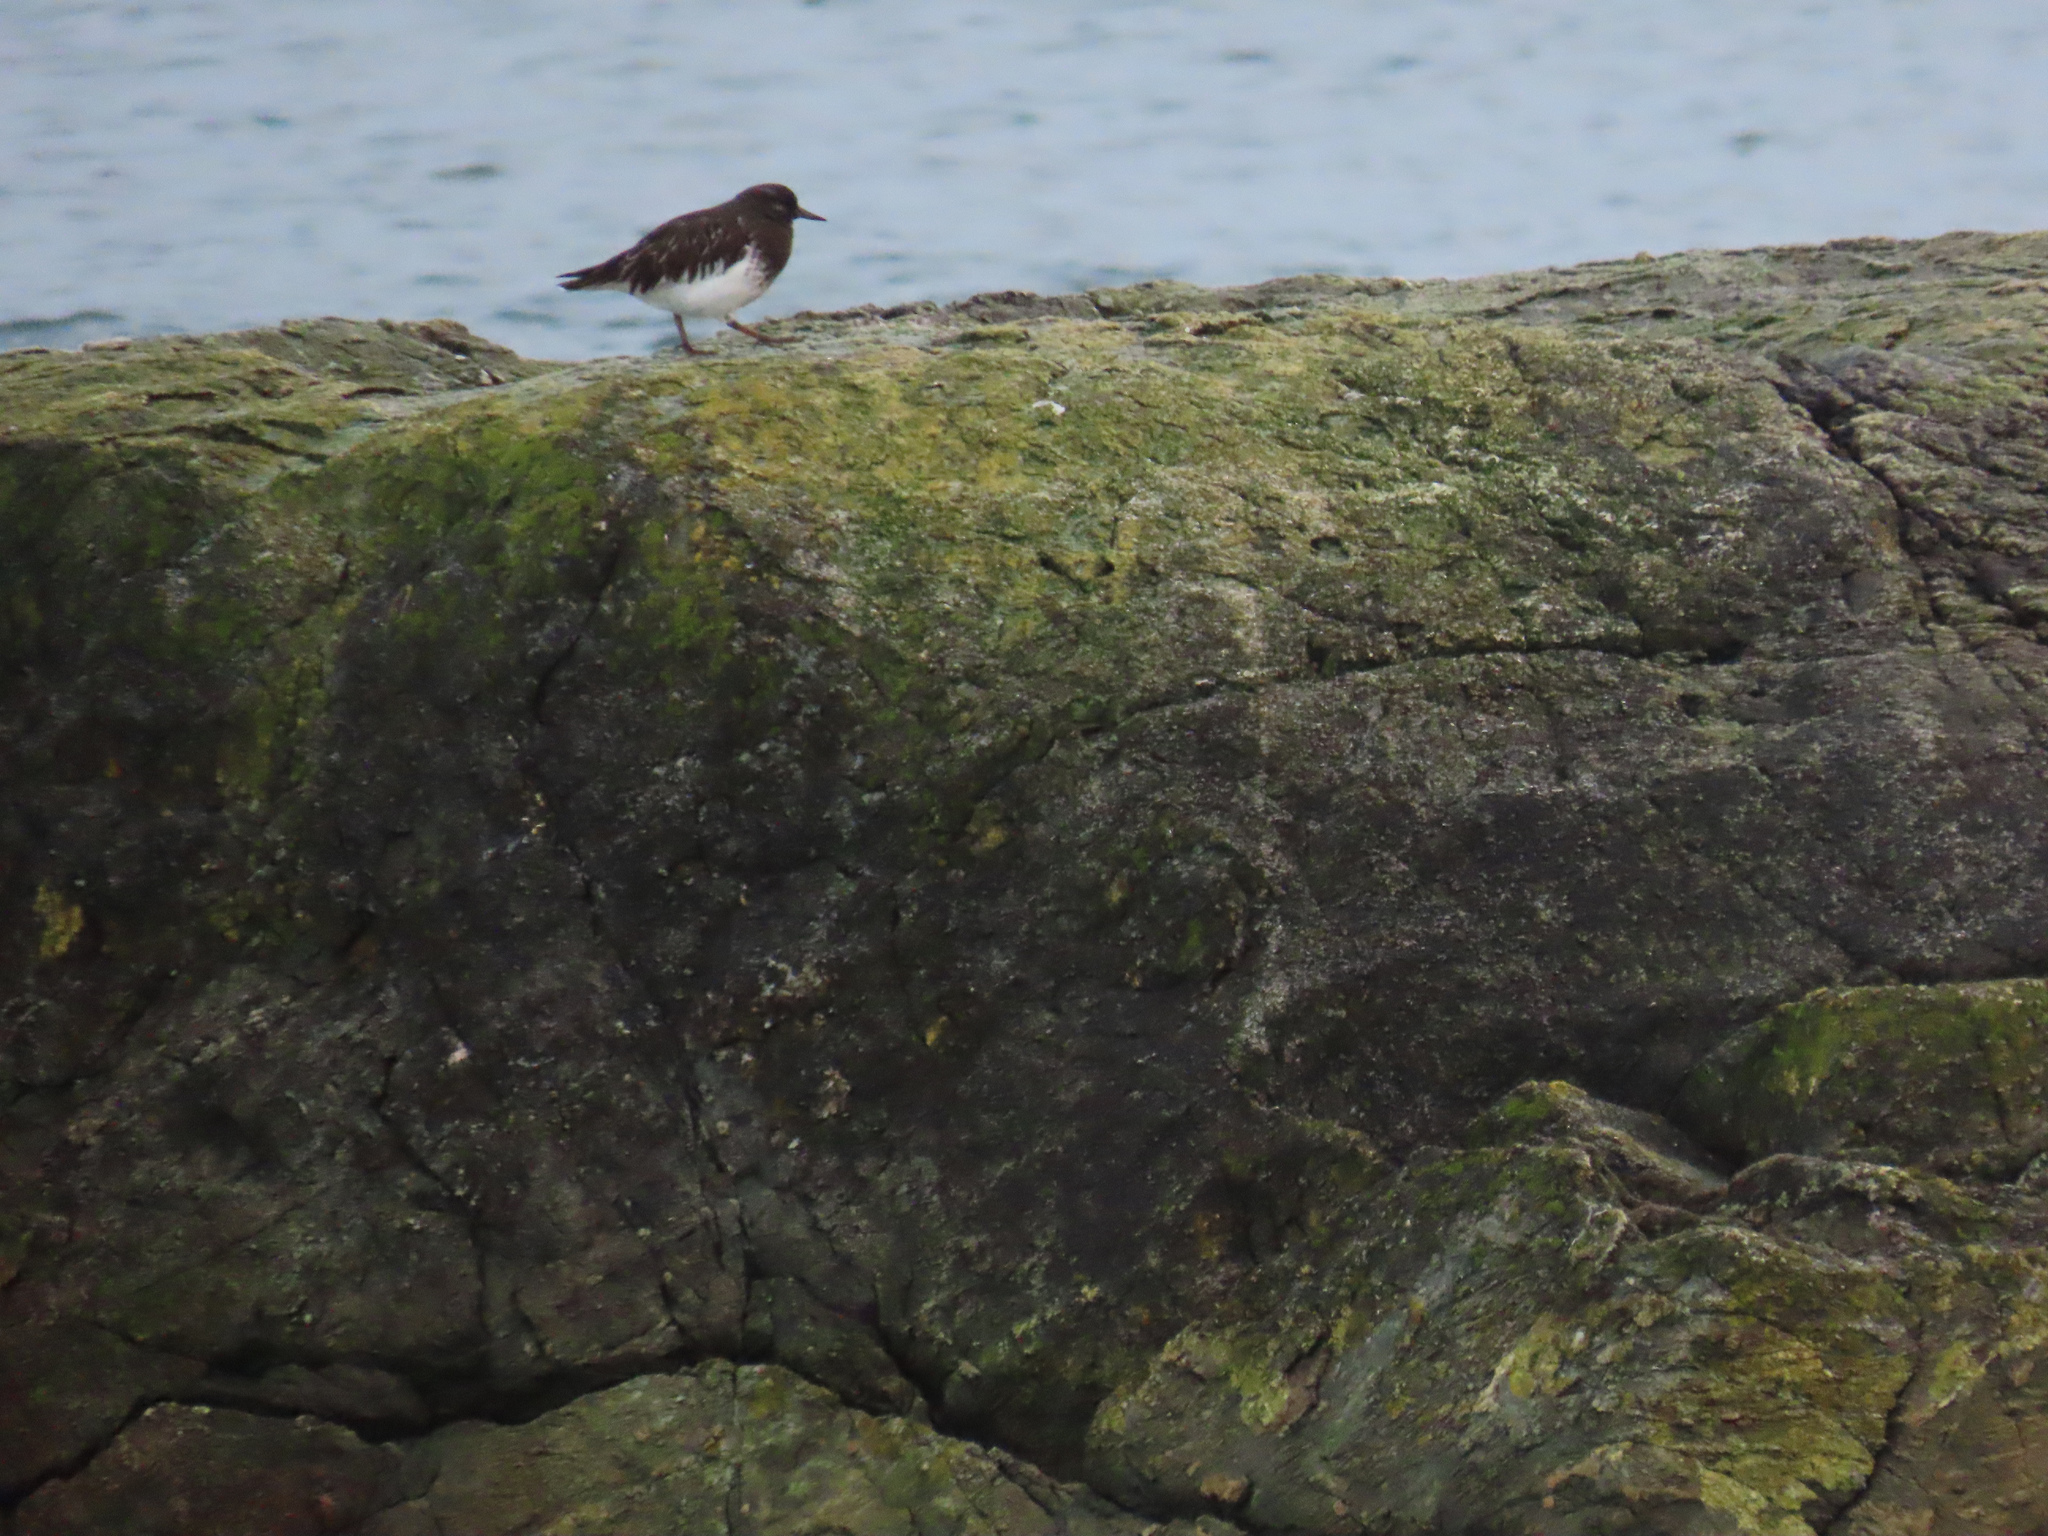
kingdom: Animalia
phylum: Chordata
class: Aves
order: Charadriiformes
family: Scolopacidae
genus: Arenaria
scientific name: Arenaria melanocephala
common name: Black turnstone
